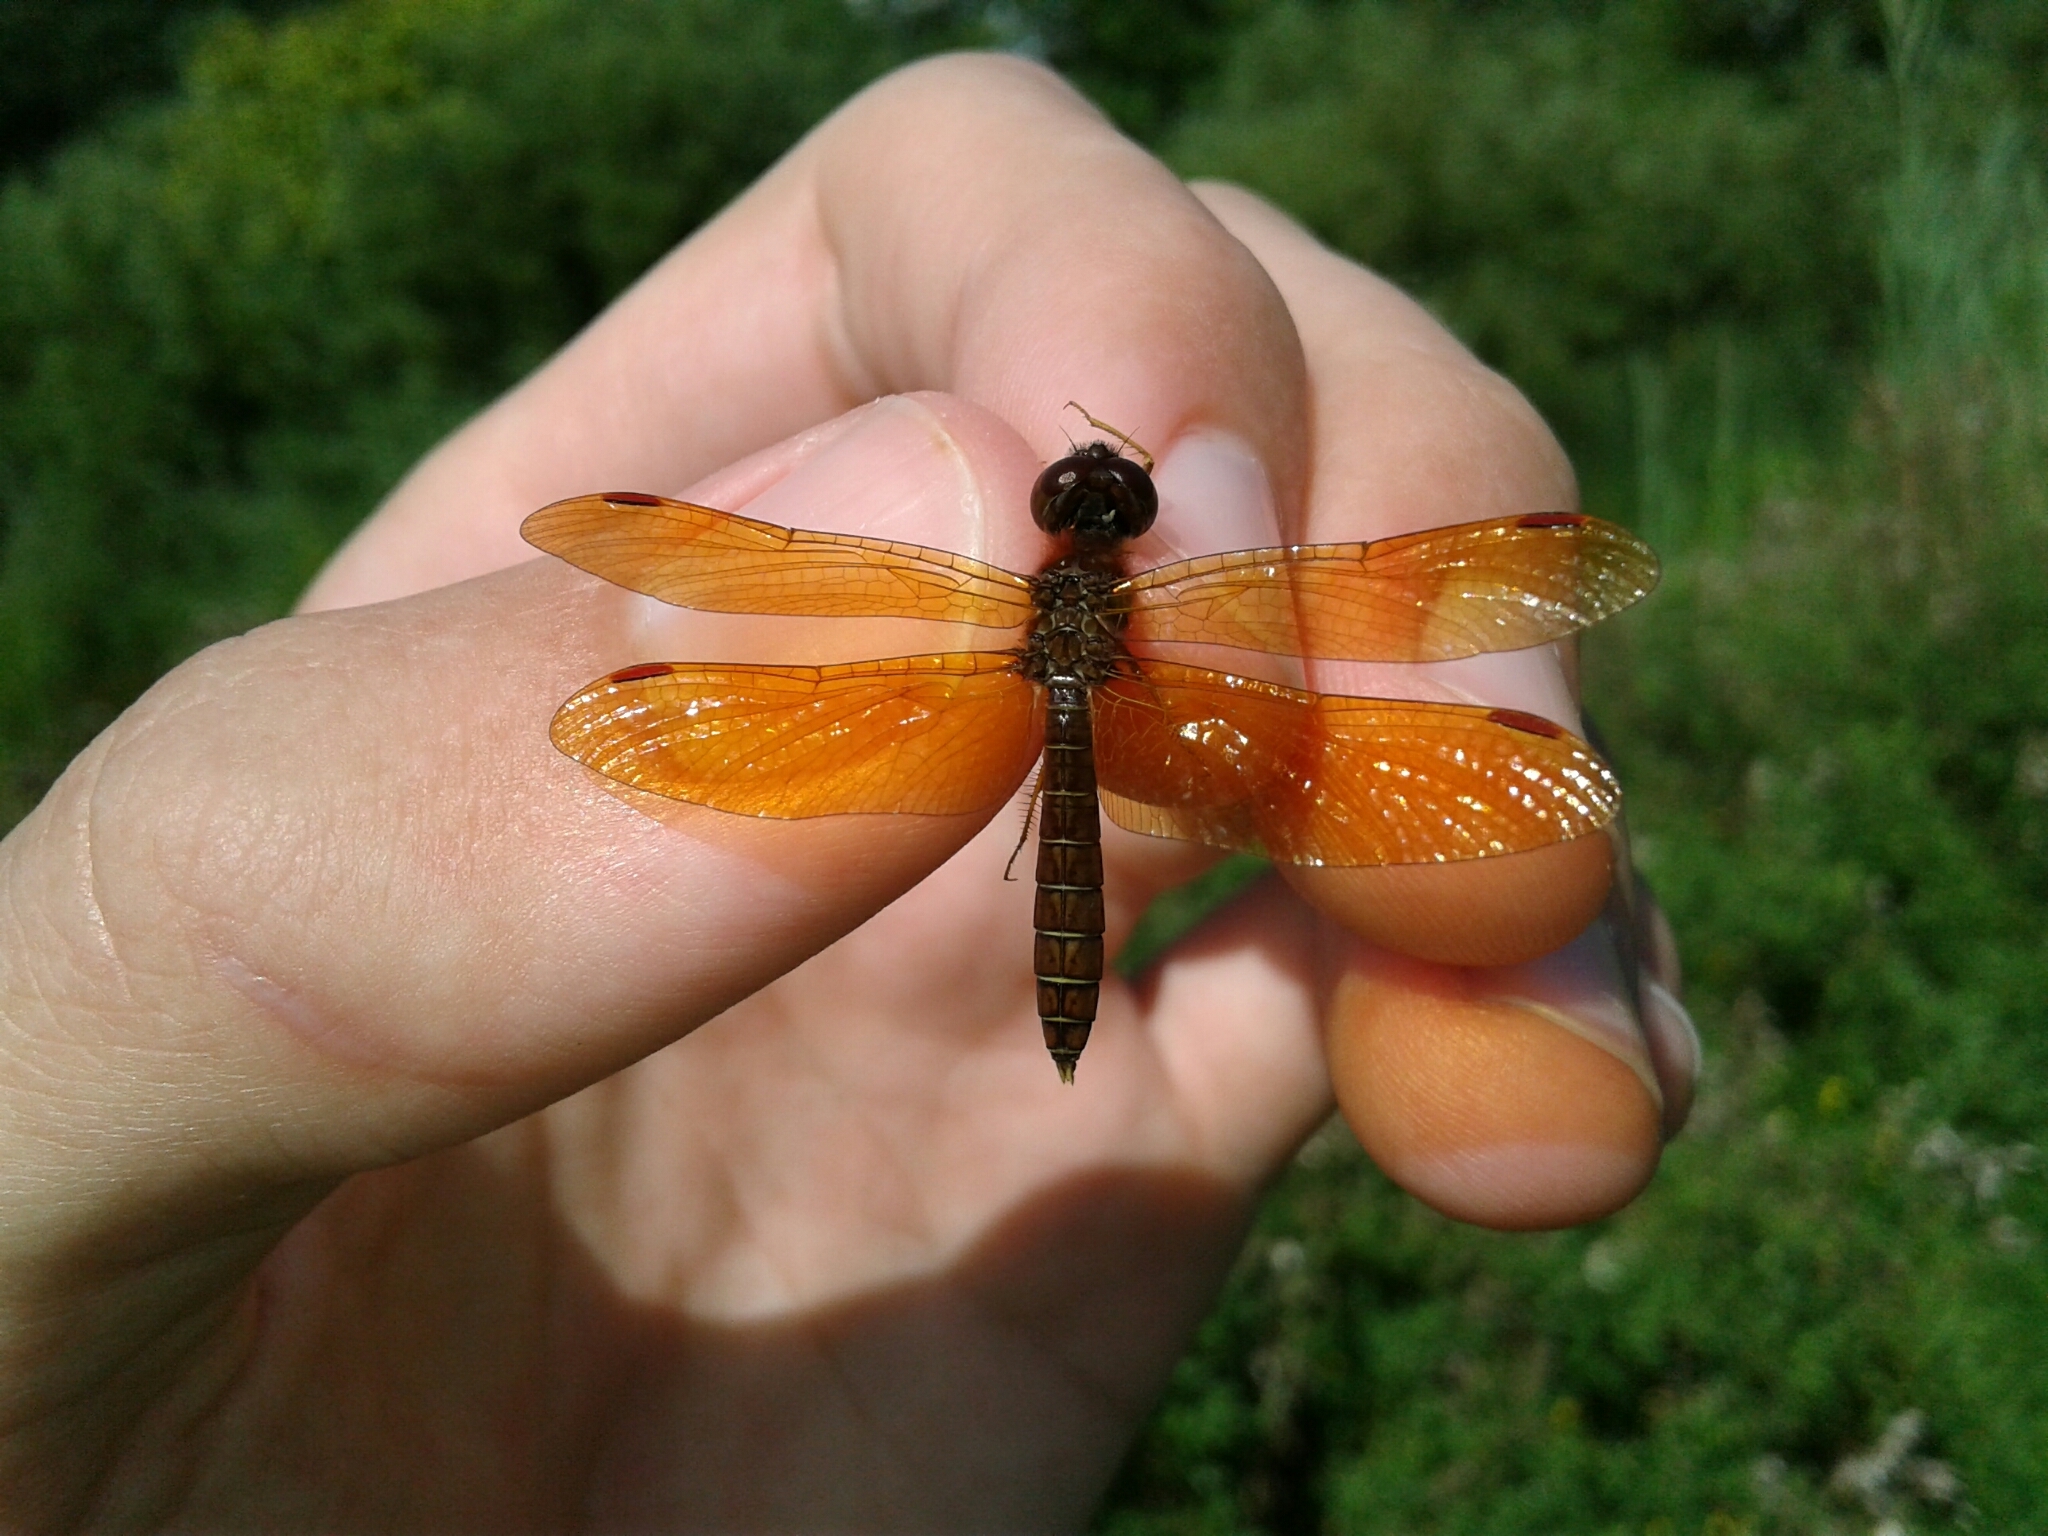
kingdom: Animalia
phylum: Arthropoda
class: Insecta
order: Odonata
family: Libellulidae
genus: Perithemis
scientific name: Perithemis tenera
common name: Eastern amberwing
